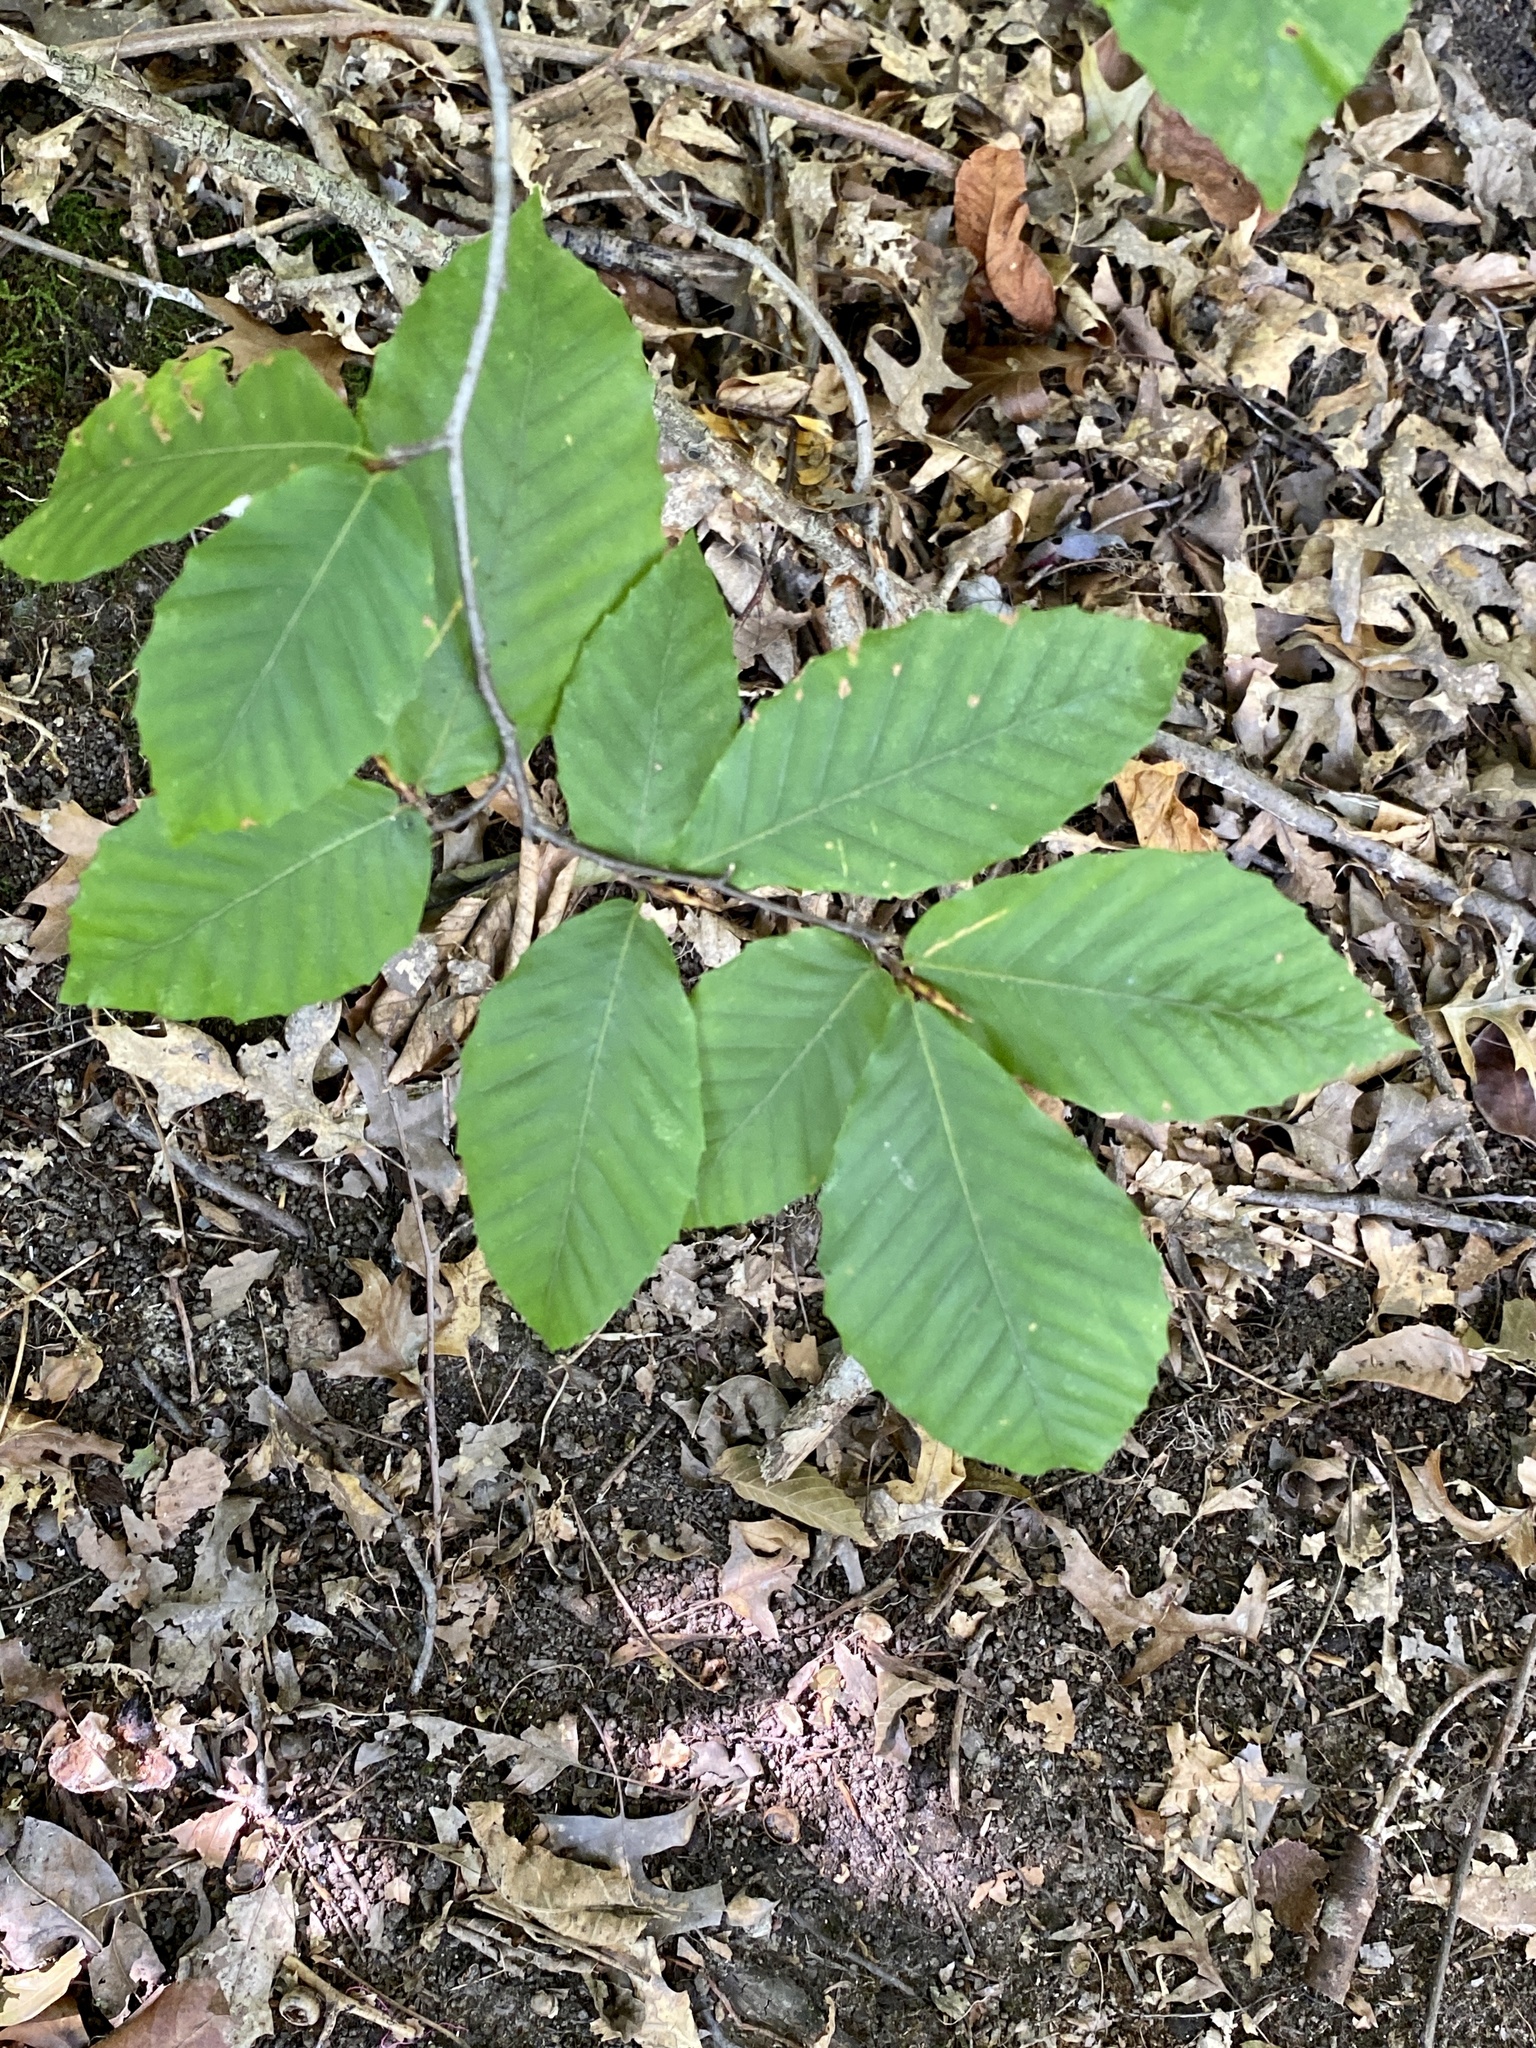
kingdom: Plantae
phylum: Tracheophyta
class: Magnoliopsida
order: Fagales
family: Fagaceae
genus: Fagus
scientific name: Fagus grandifolia
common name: American beech
